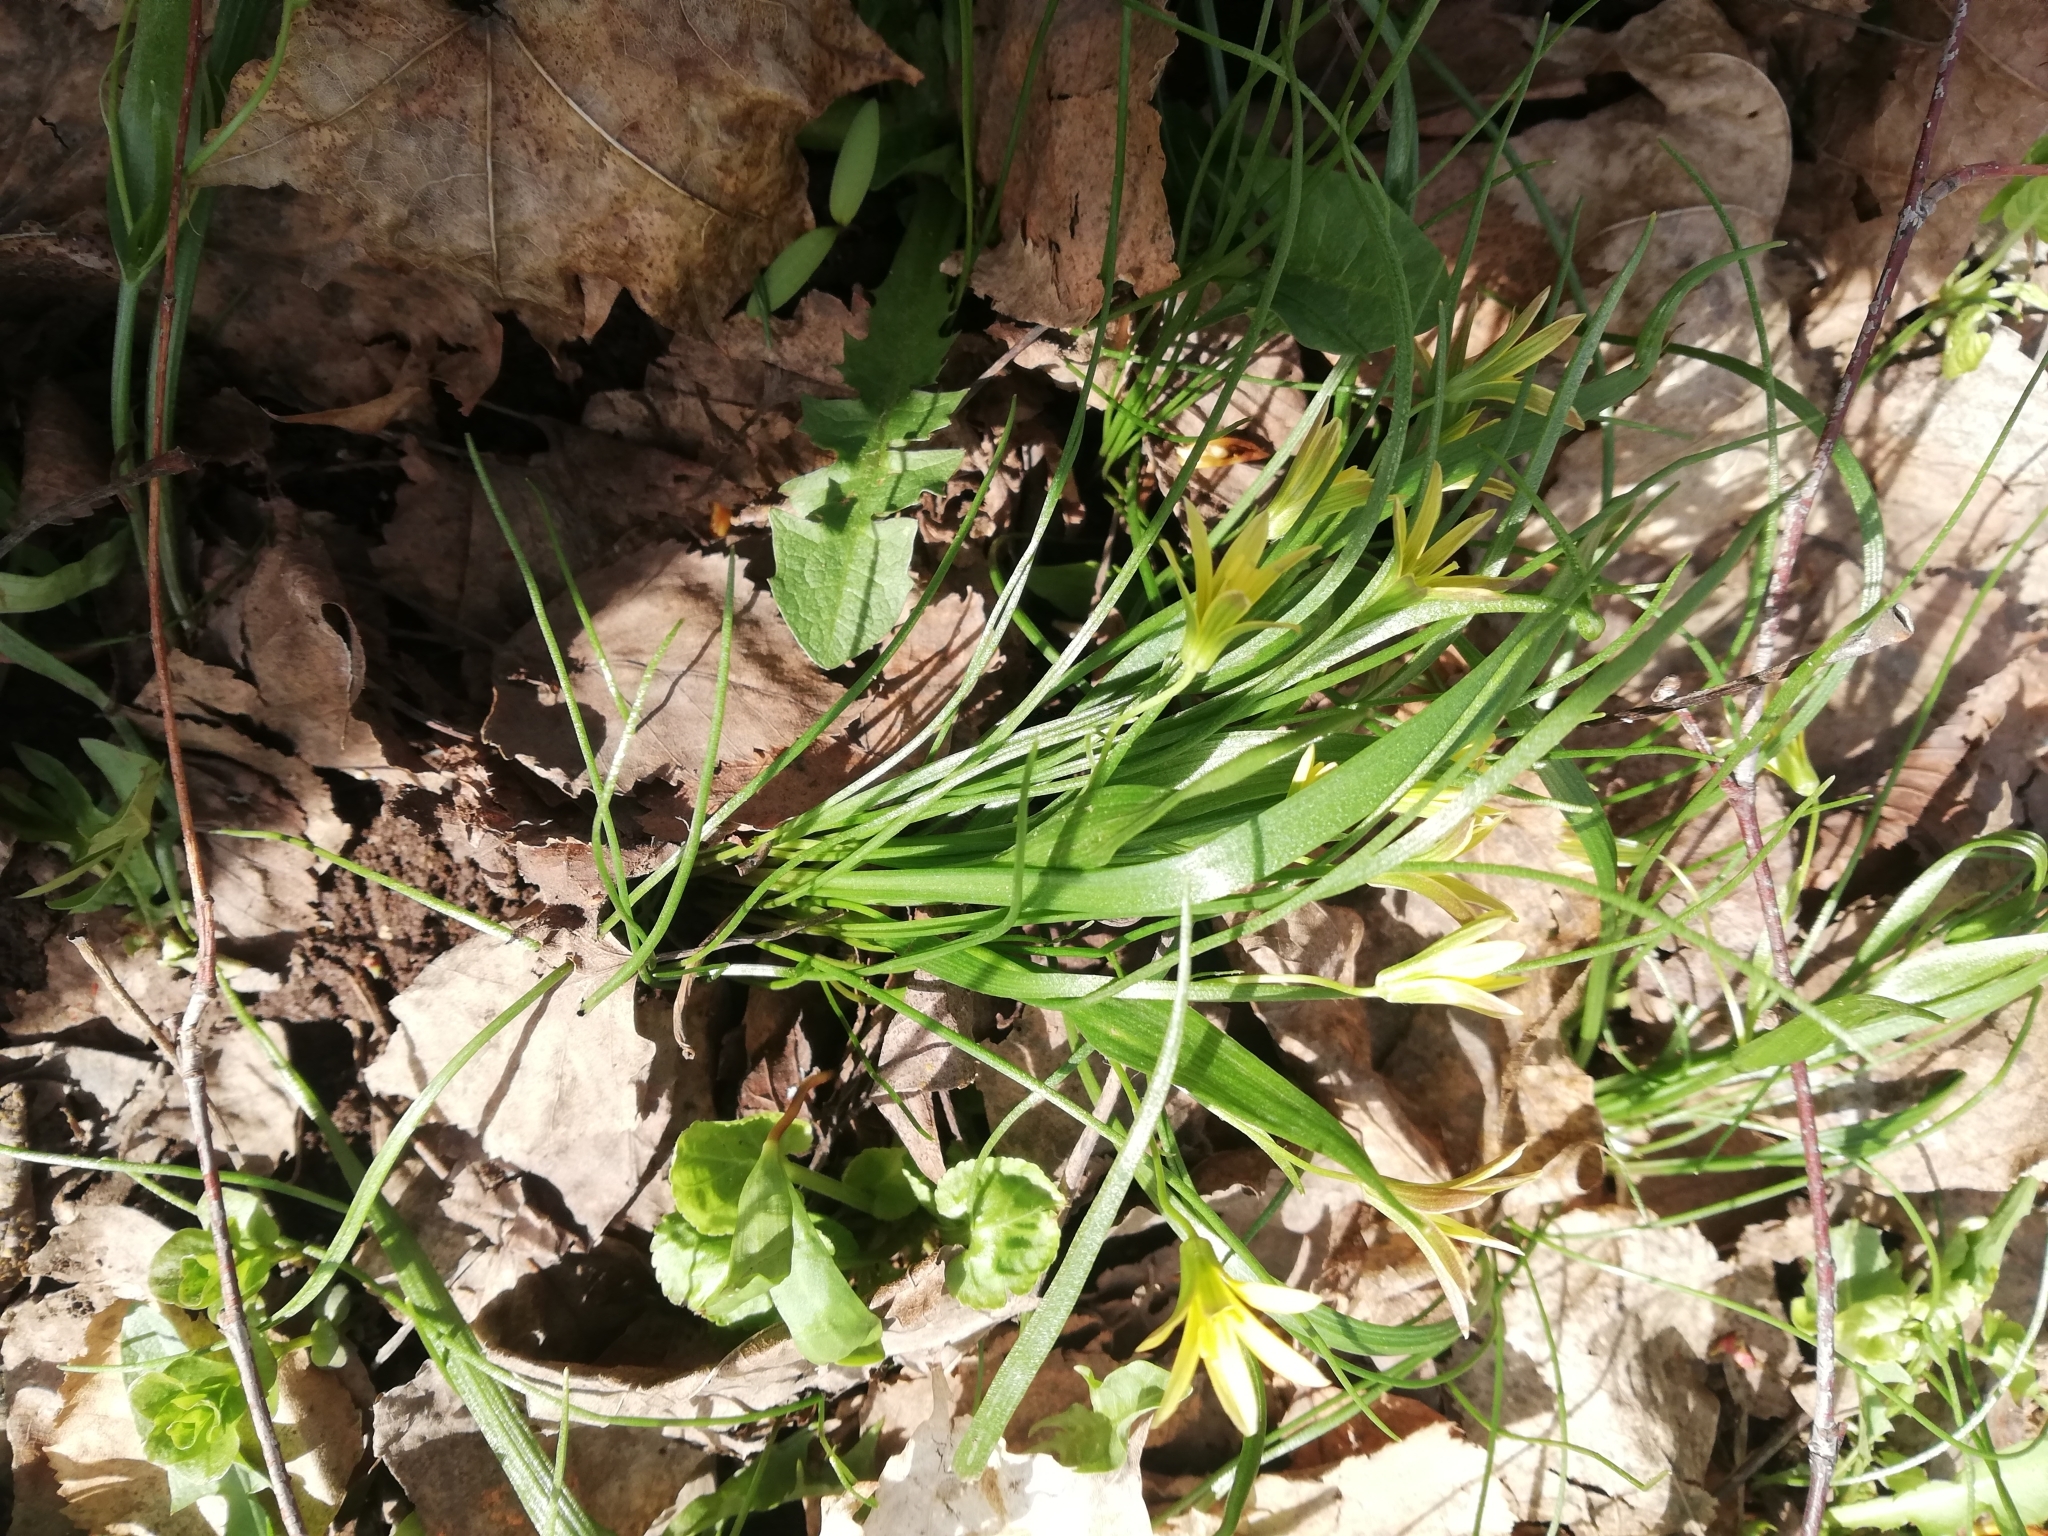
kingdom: Plantae
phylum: Tracheophyta
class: Liliopsida
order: Liliales
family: Liliaceae
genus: Gagea
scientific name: Gagea minima
